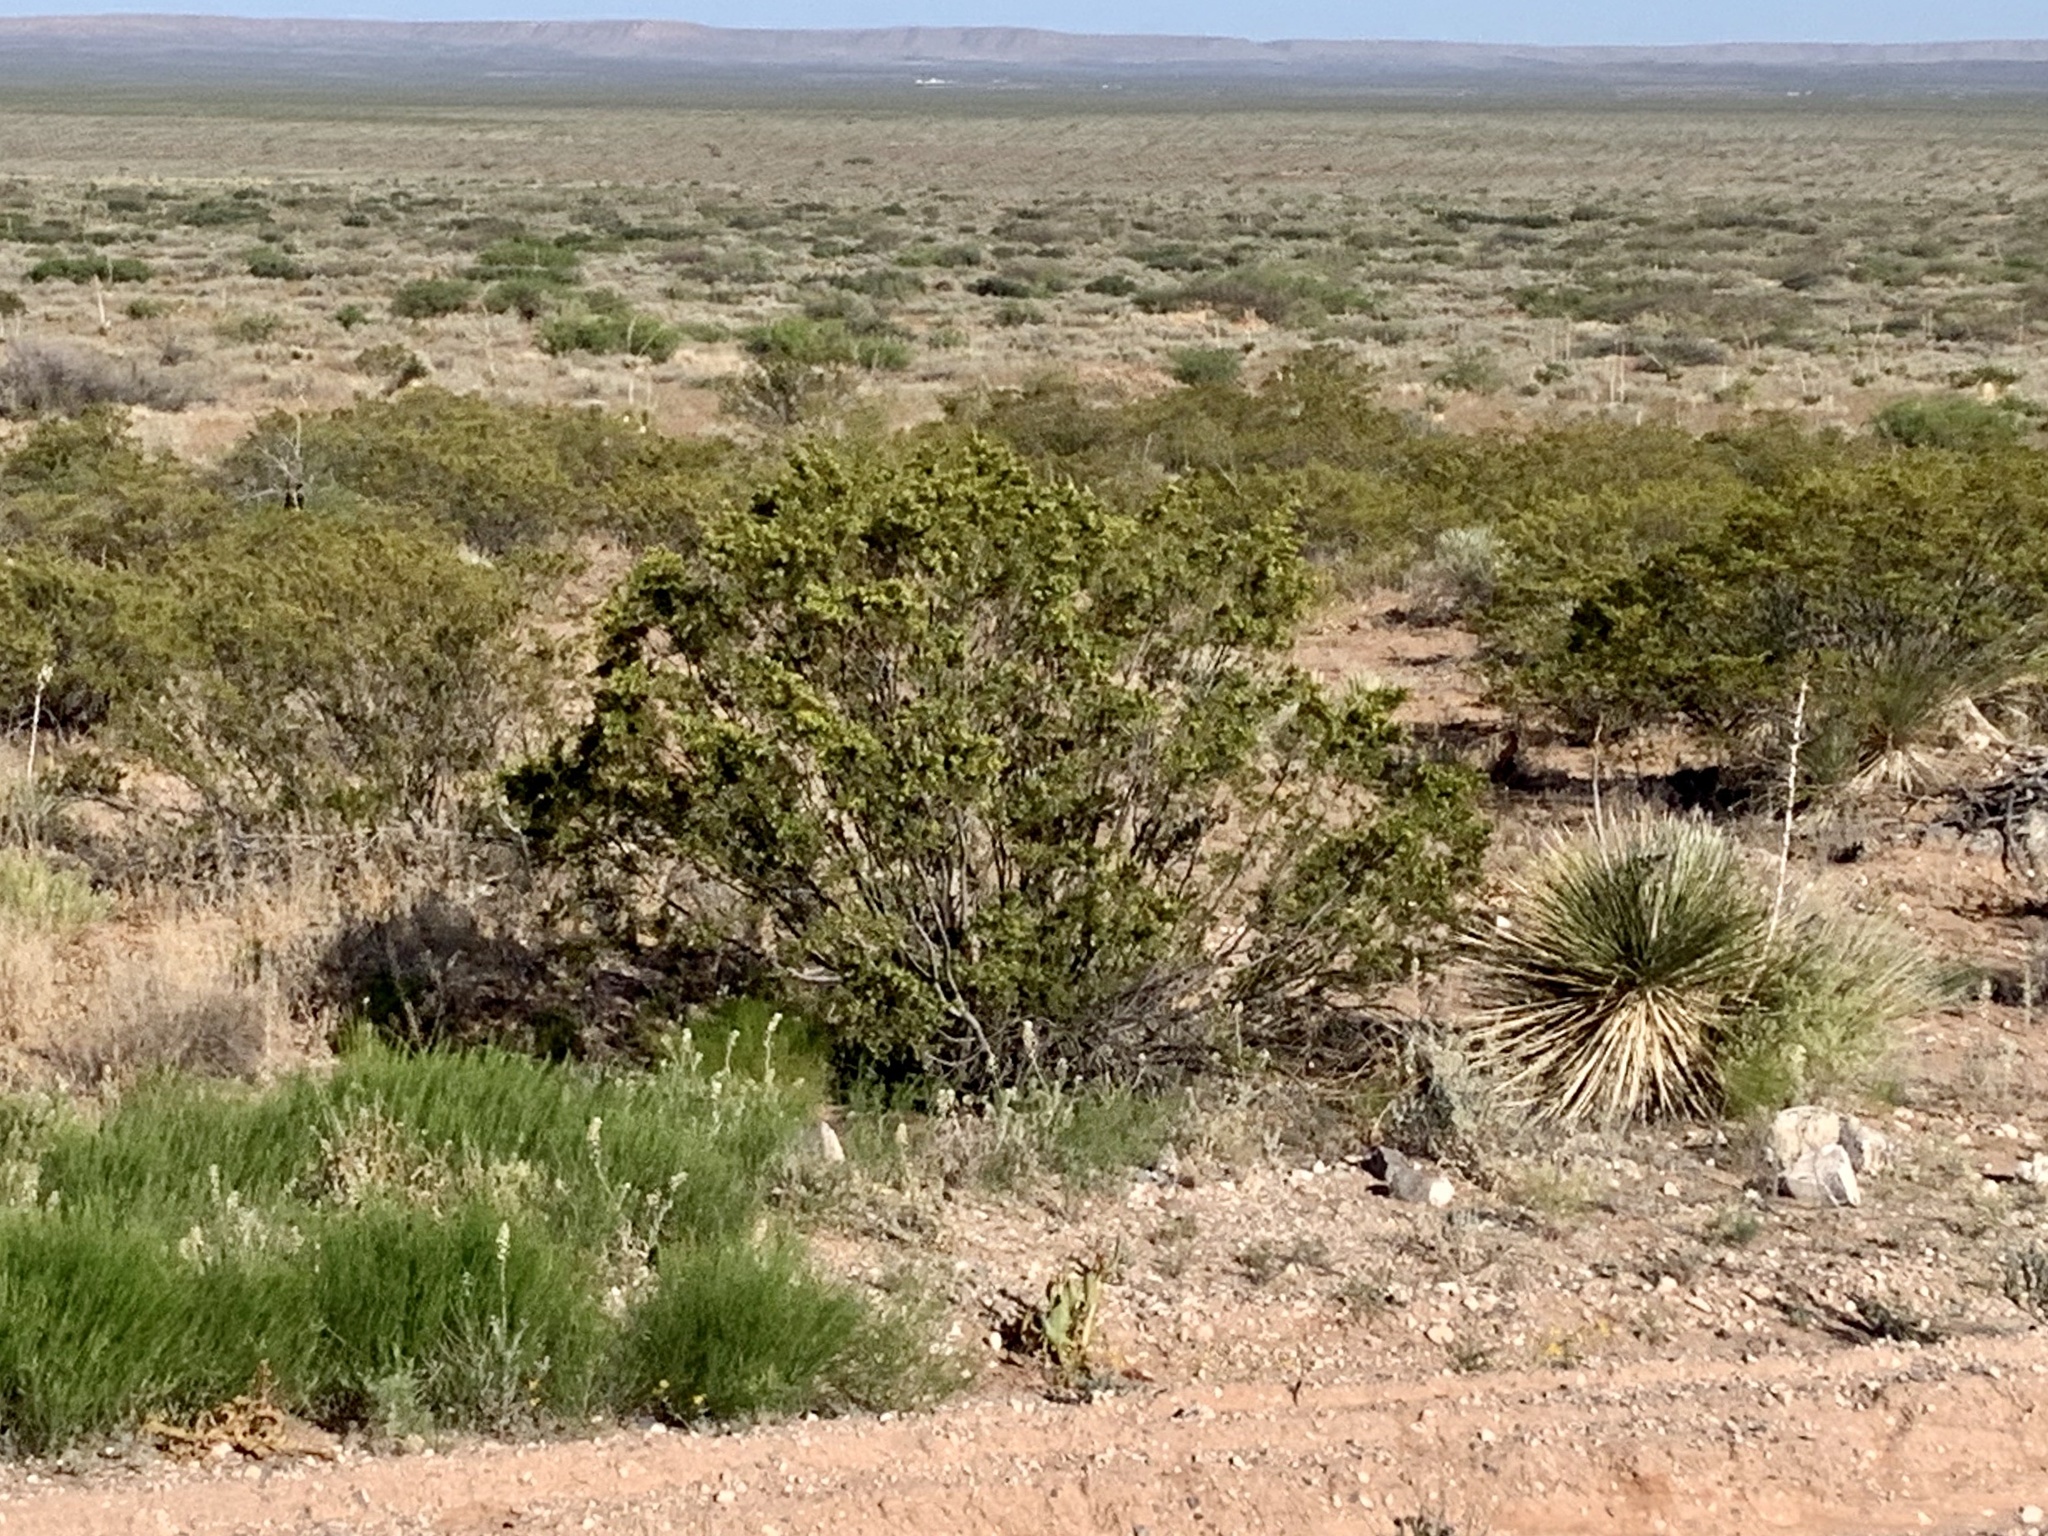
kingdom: Plantae
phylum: Tracheophyta
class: Magnoliopsida
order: Zygophyllales
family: Zygophyllaceae
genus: Larrea
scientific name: Larrea tridentata
